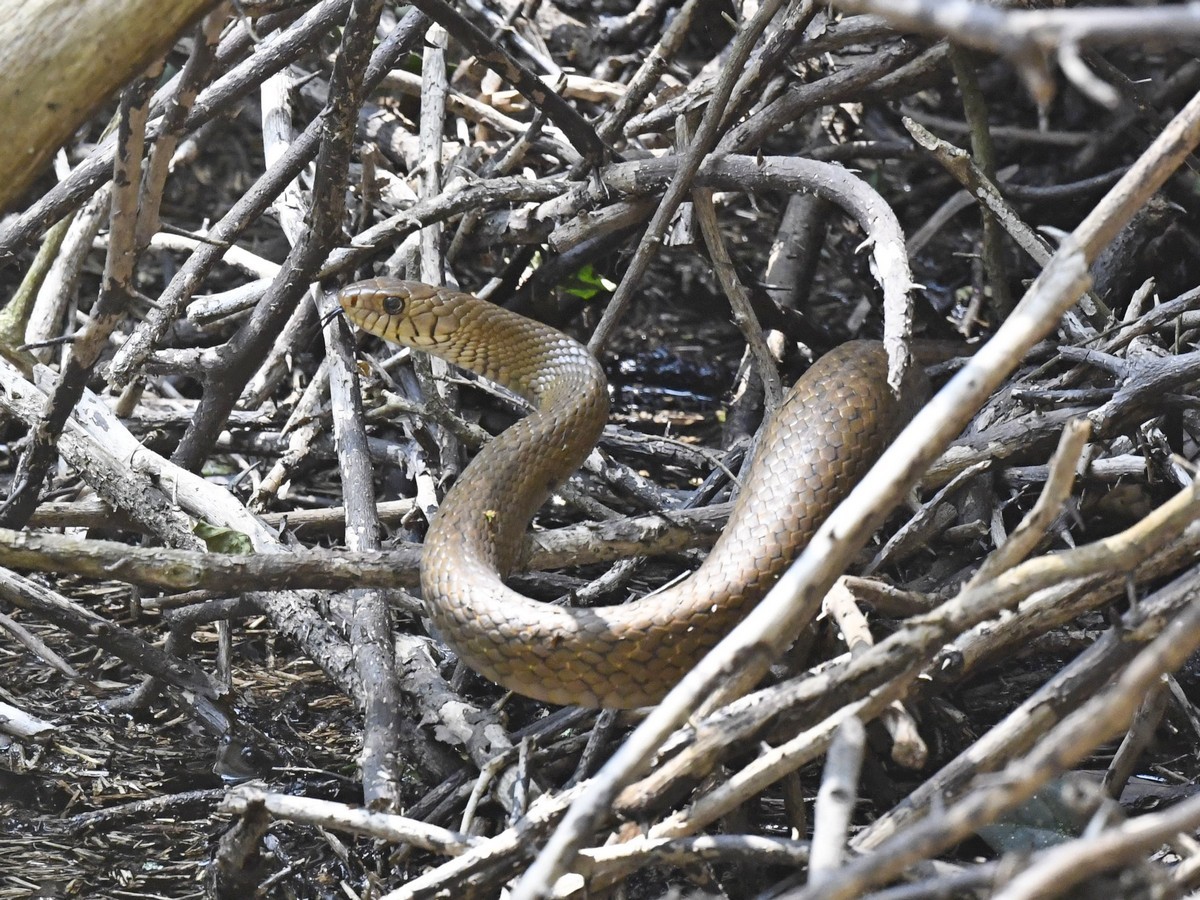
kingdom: Animalia
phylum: Chordata
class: Squamata
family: Colubridae
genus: Ptyas
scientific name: Ptyas mucosa
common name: Oriental ratsnake
